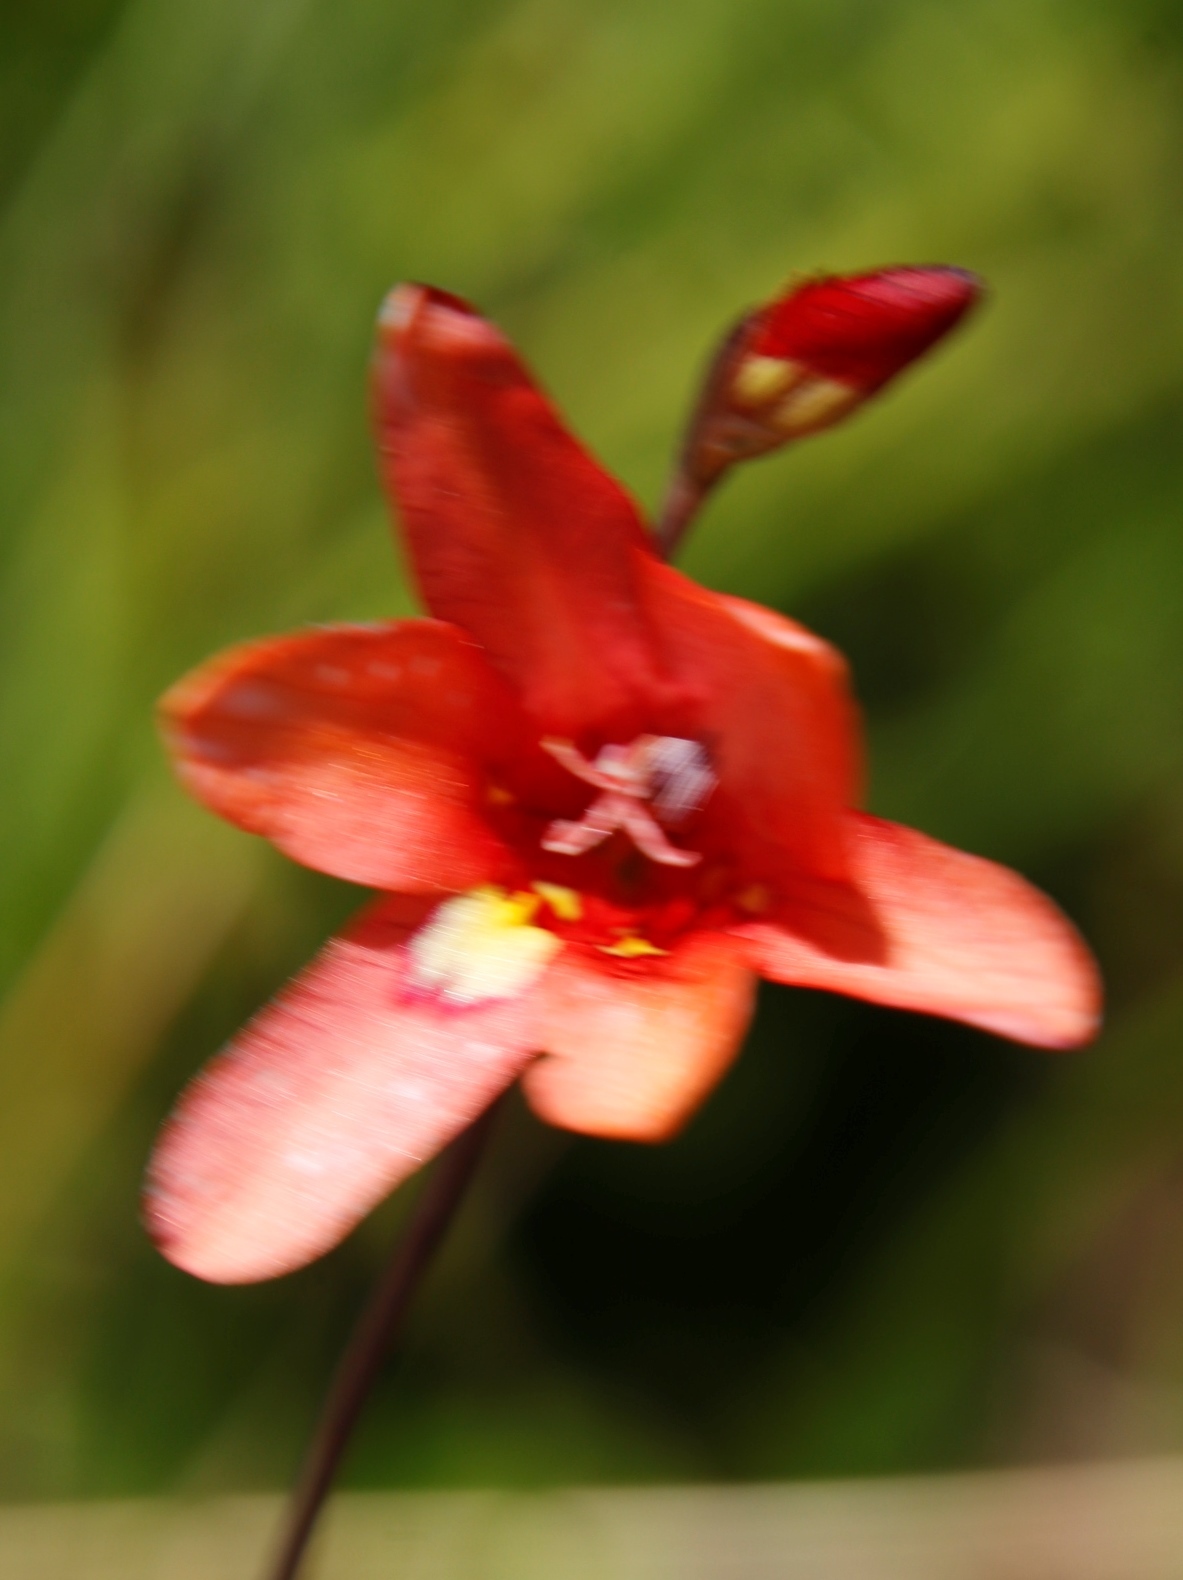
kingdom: Plantae
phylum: Tracheophyta
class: Liliopsida
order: Asparagales
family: Iridaceae
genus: Tritonia
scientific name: Tritonia drakensbergensis
